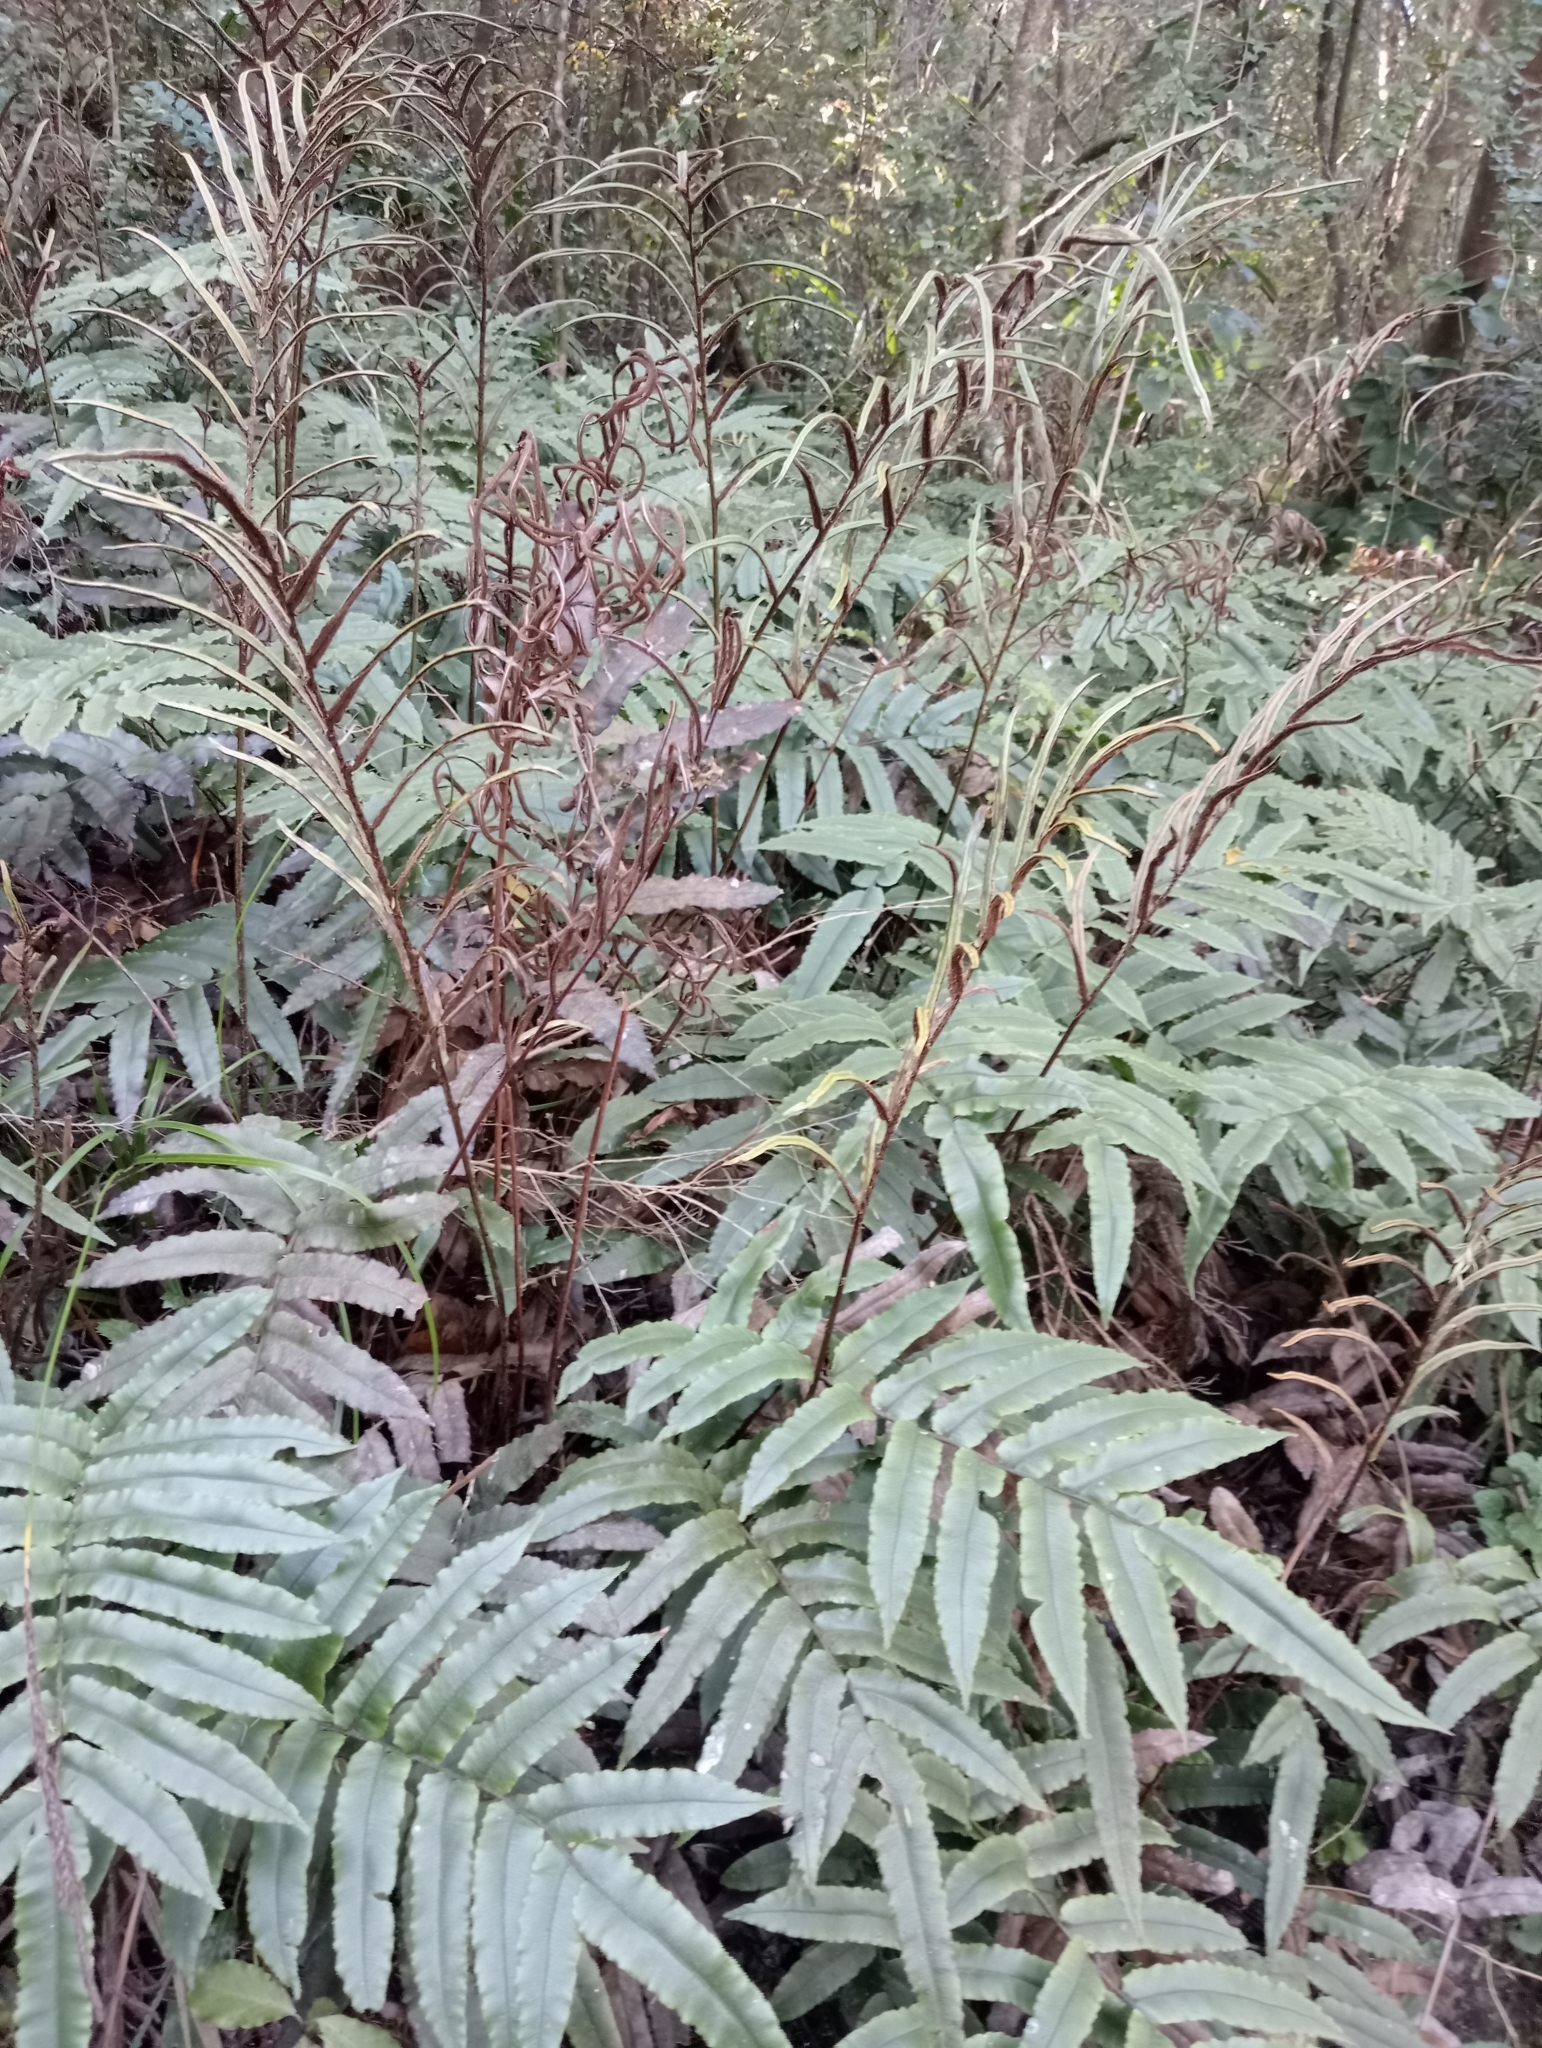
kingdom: Plantae
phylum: Tracheophyta
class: Polypodiopsida
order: Polypodiales
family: Blechnaceae
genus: Parablechnum
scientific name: Parablechnum procerum
